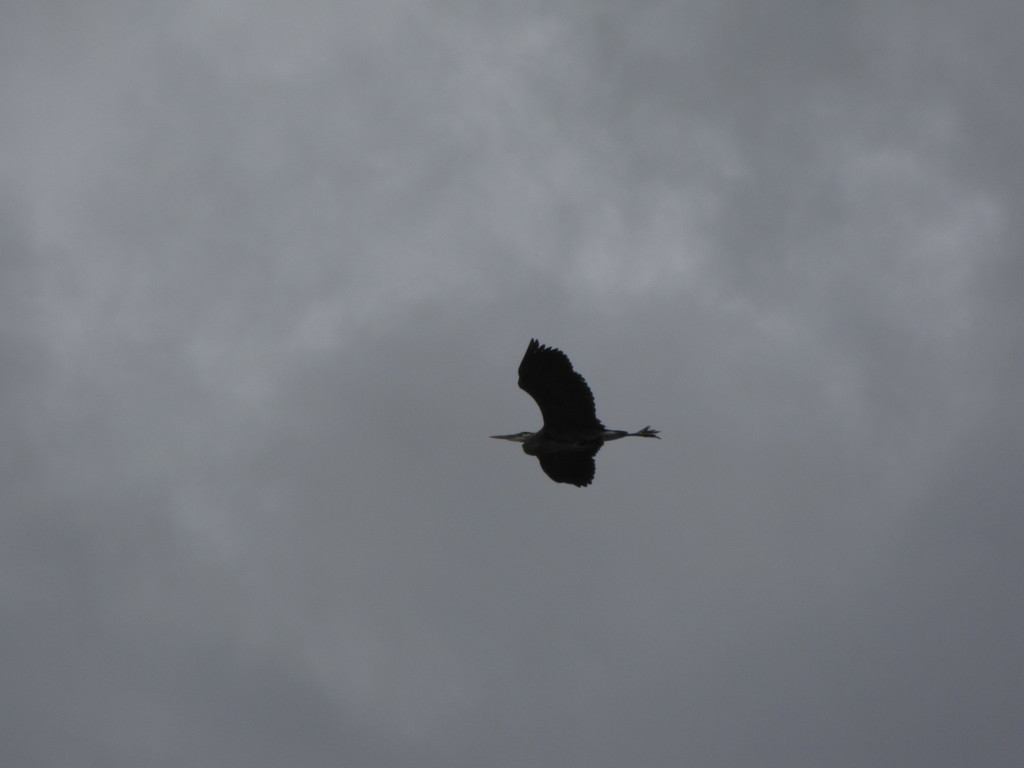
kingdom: Animalia
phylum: Chordata
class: Aves
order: Pelecaniformes
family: Ardeidae
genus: Ardea
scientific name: Ardea herodias
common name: Great blue heron
